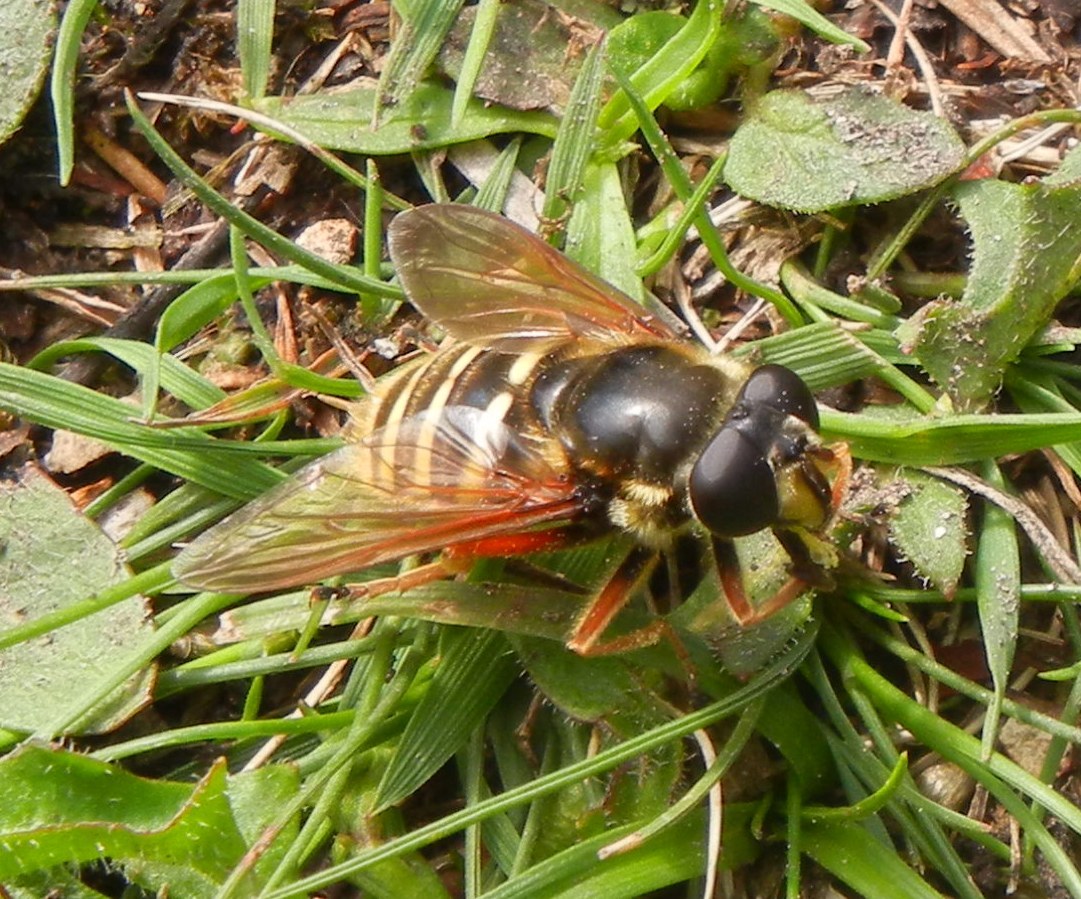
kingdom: Animalia
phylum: Arthropoda
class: Insecta
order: Diptera
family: Syrphidae
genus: Sericomyia
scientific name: Sericomyia silentis
